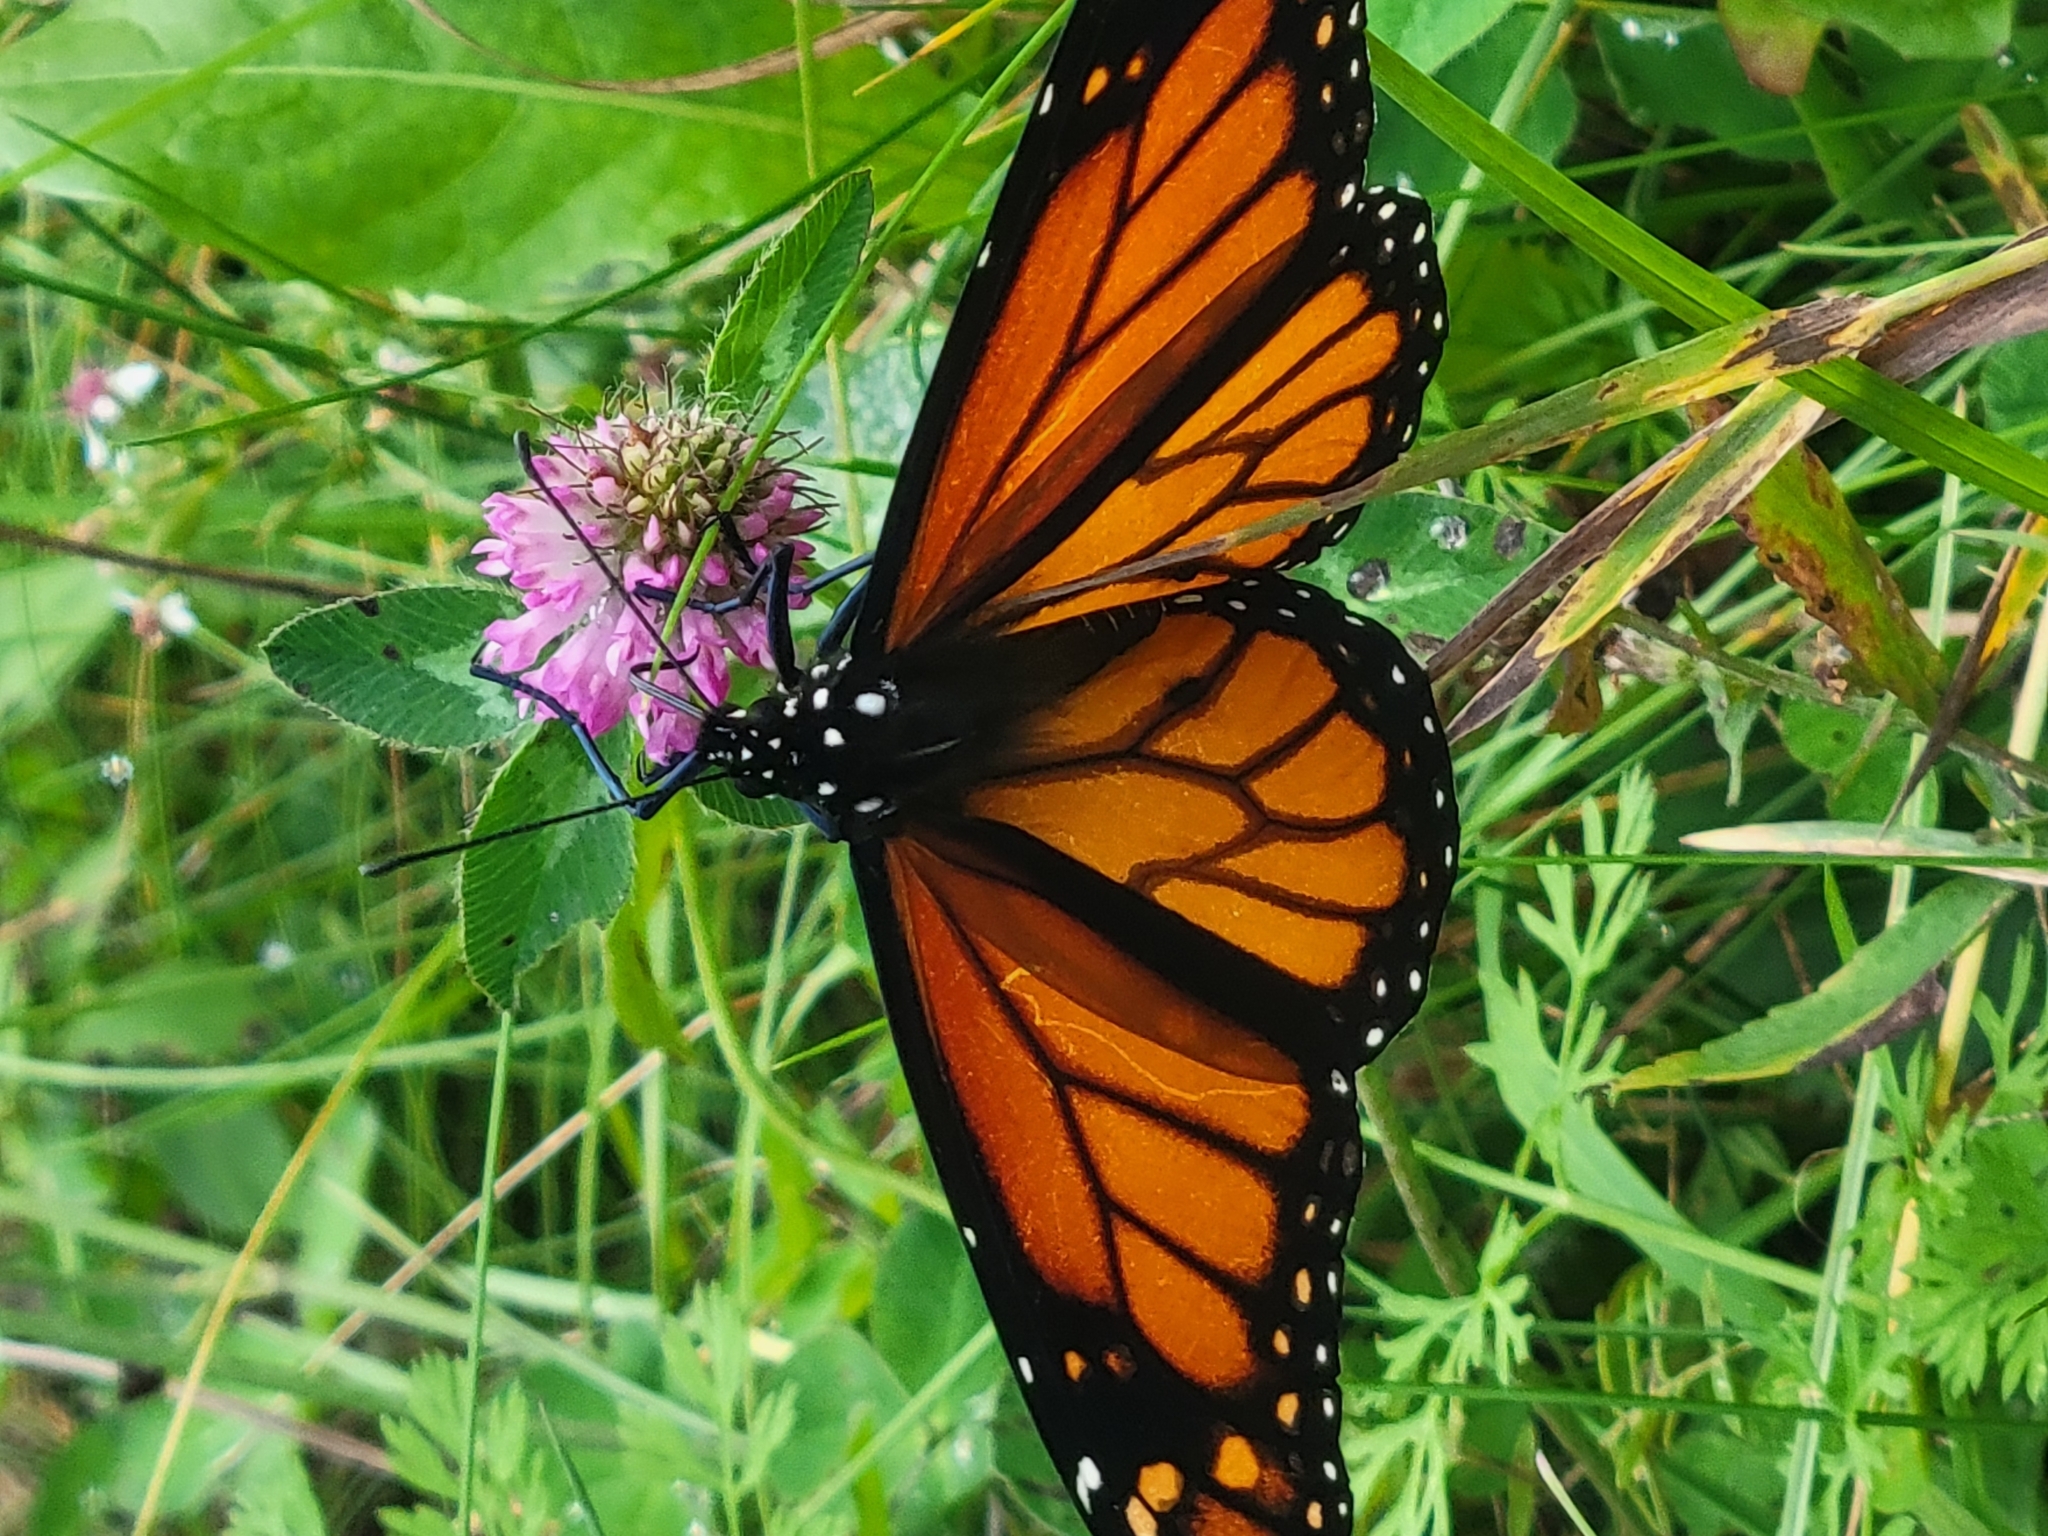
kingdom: Animalia
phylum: Arthropoda
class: Insecta
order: Lepidoptera
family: Nymphalidae
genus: Danaus
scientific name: Danaus plexippus
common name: Monarch
